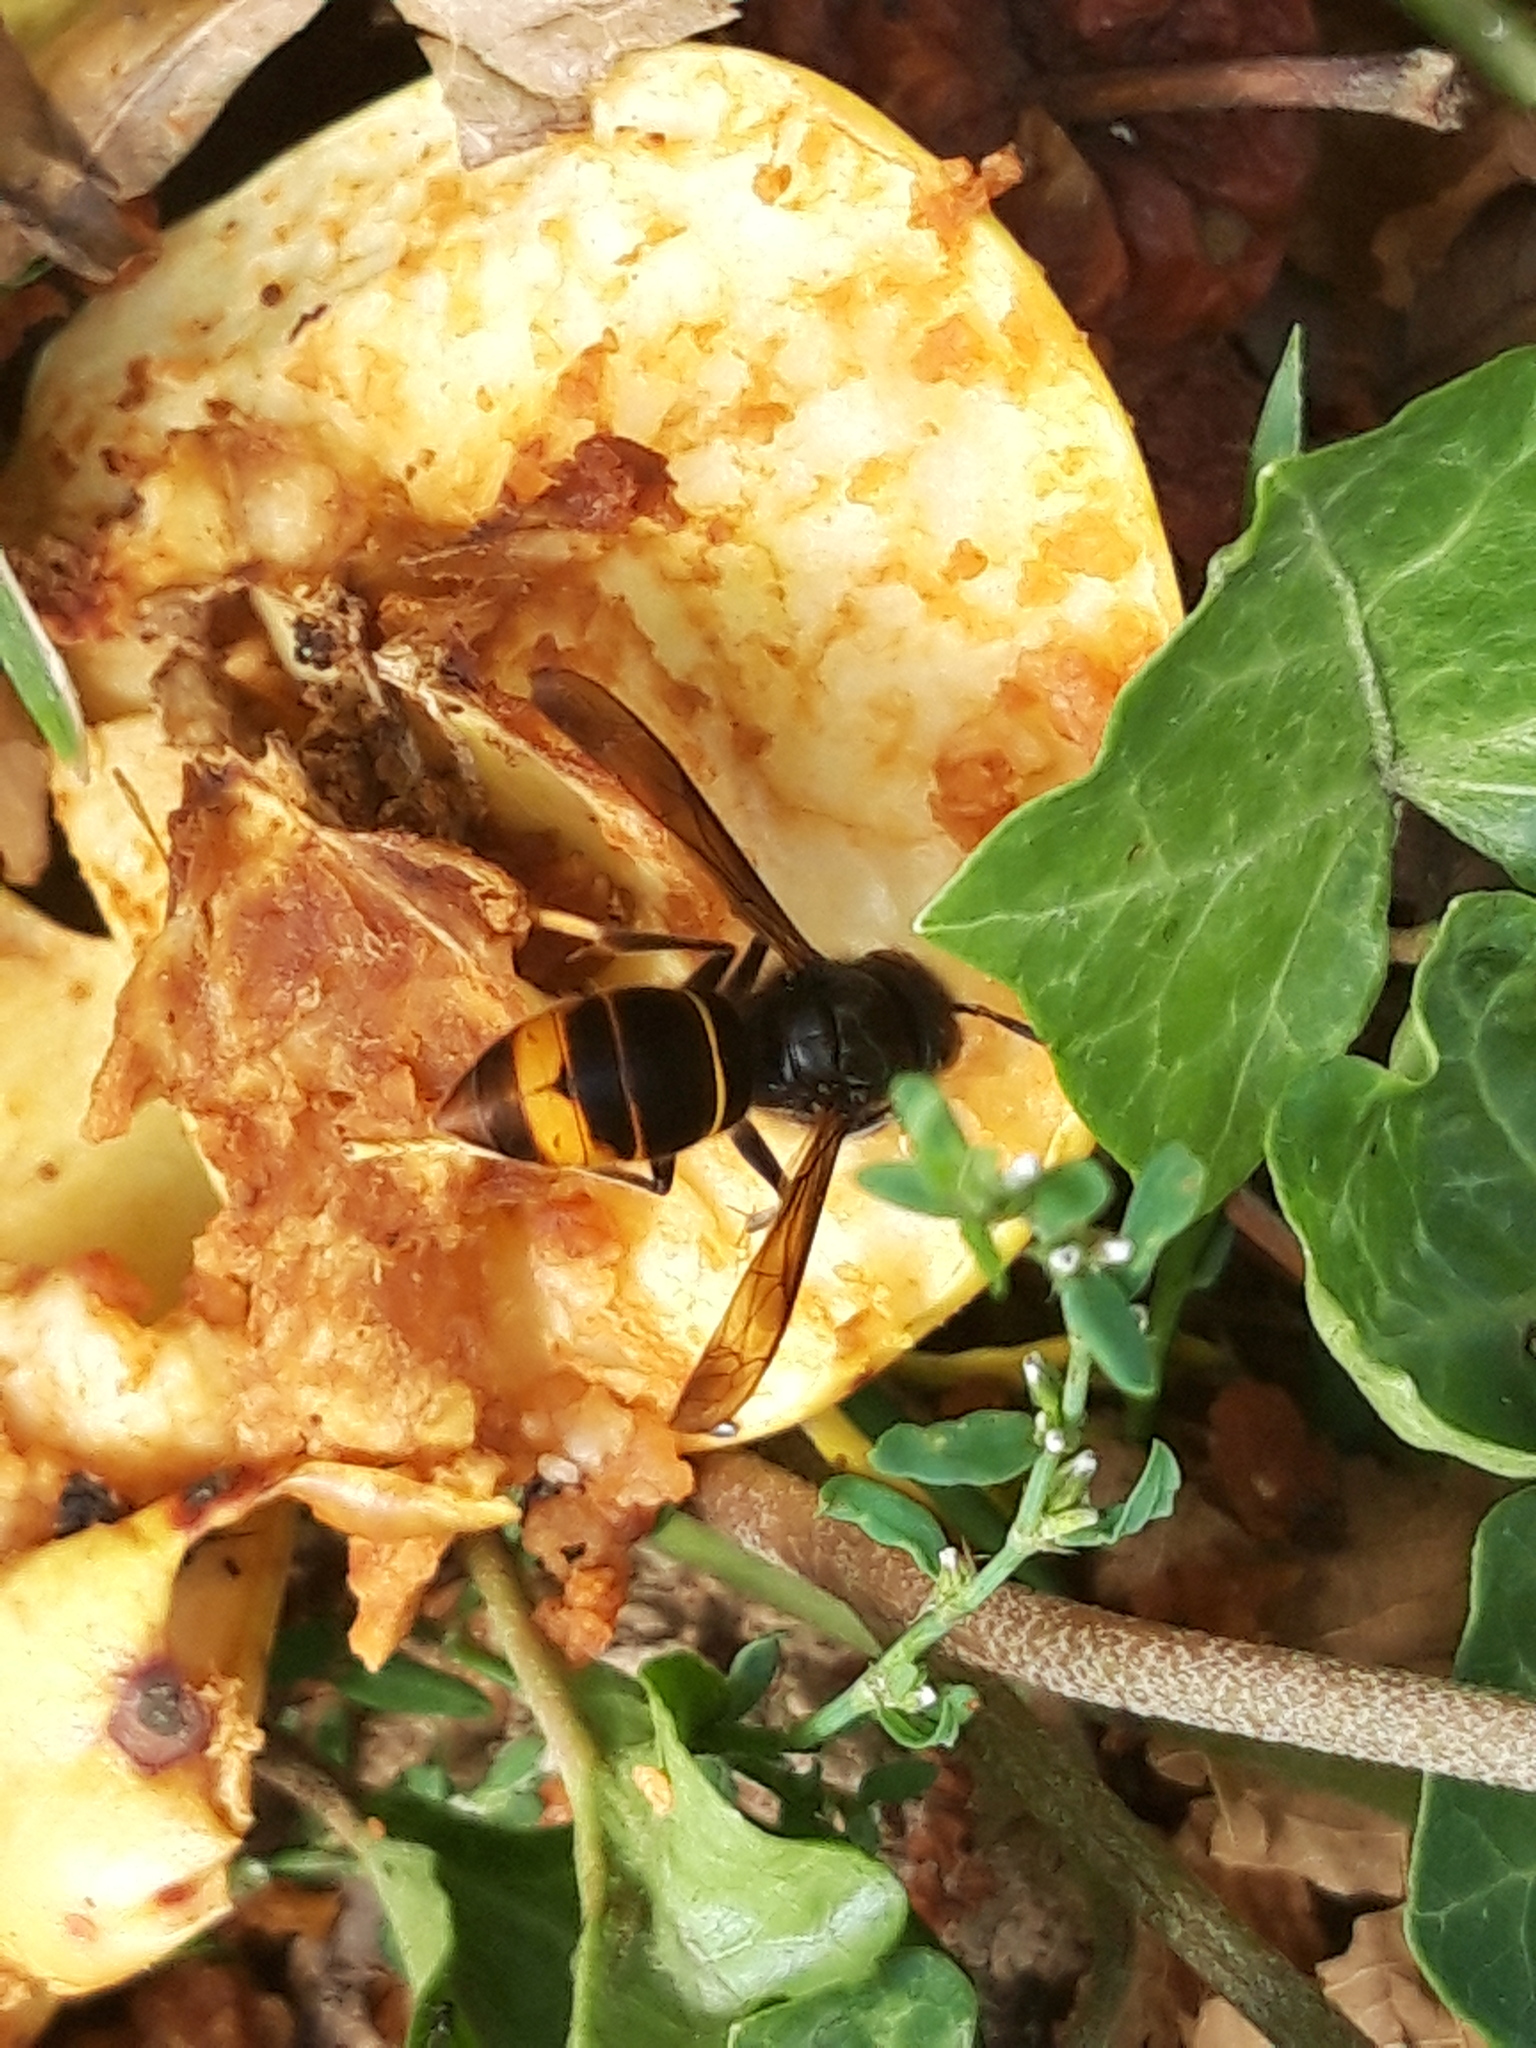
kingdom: Animalia
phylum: Arthropoda
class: Insecta
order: Hymenoptera
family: Vespidae
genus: Vespa
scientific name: Vespa velutina
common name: Asian hornet
